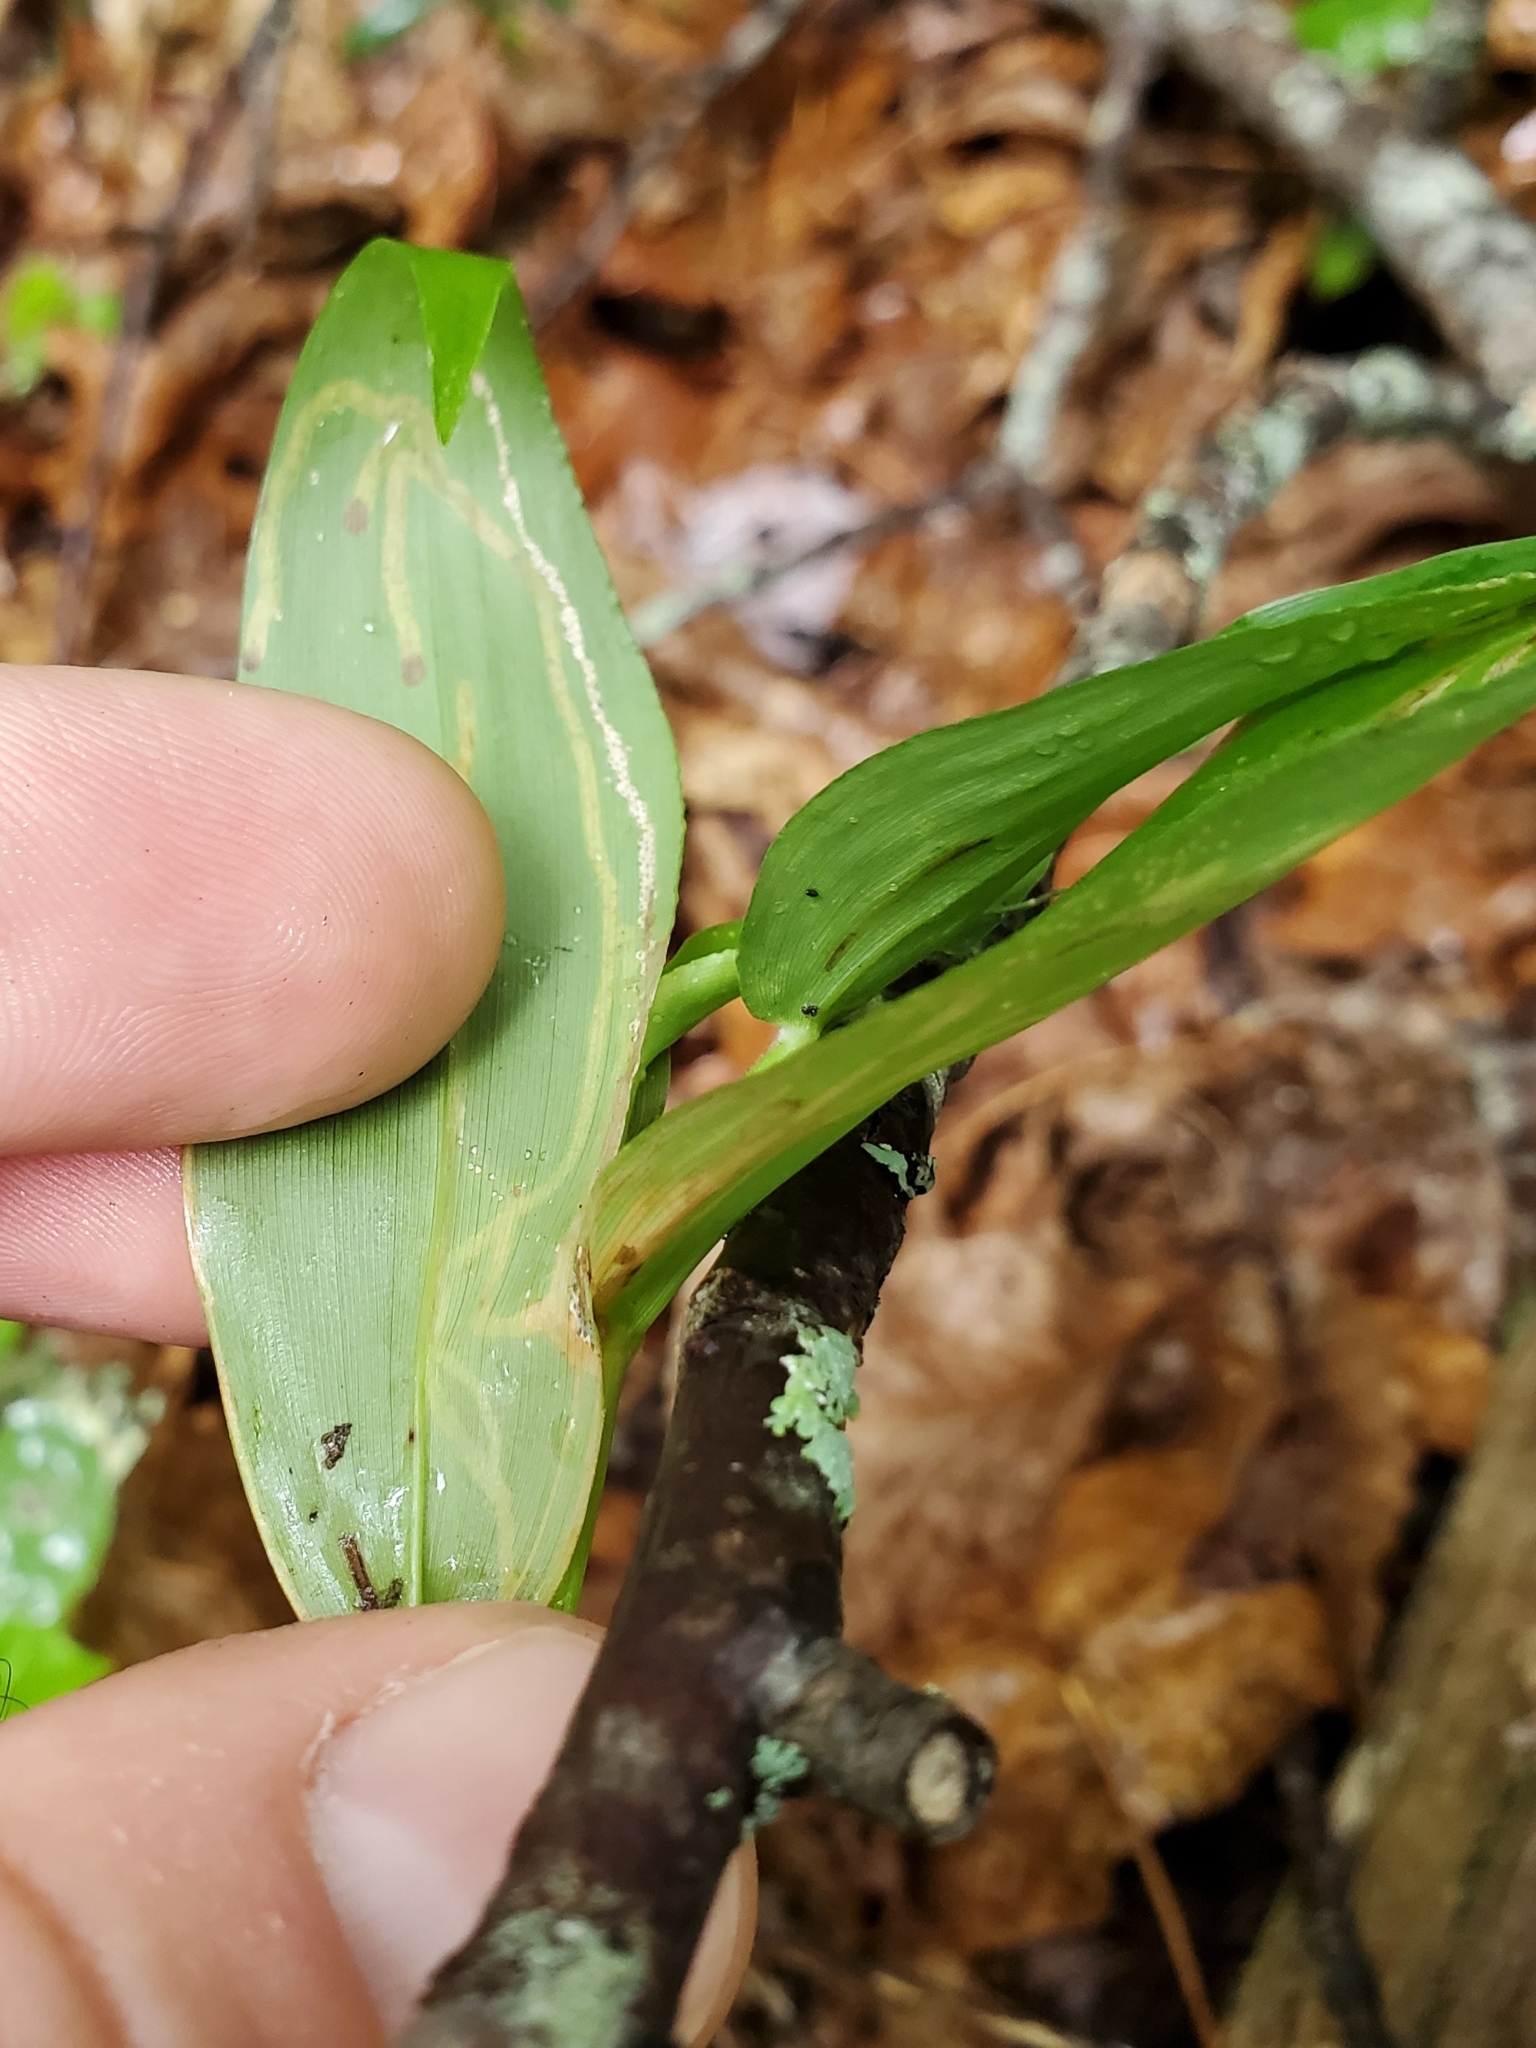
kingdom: Plantae
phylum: Tracheophyta
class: Liliopsida
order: Poales
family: Poaceae
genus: Dichanthelium
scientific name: Dichanthelium boscii
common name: Bosc's panic grass
